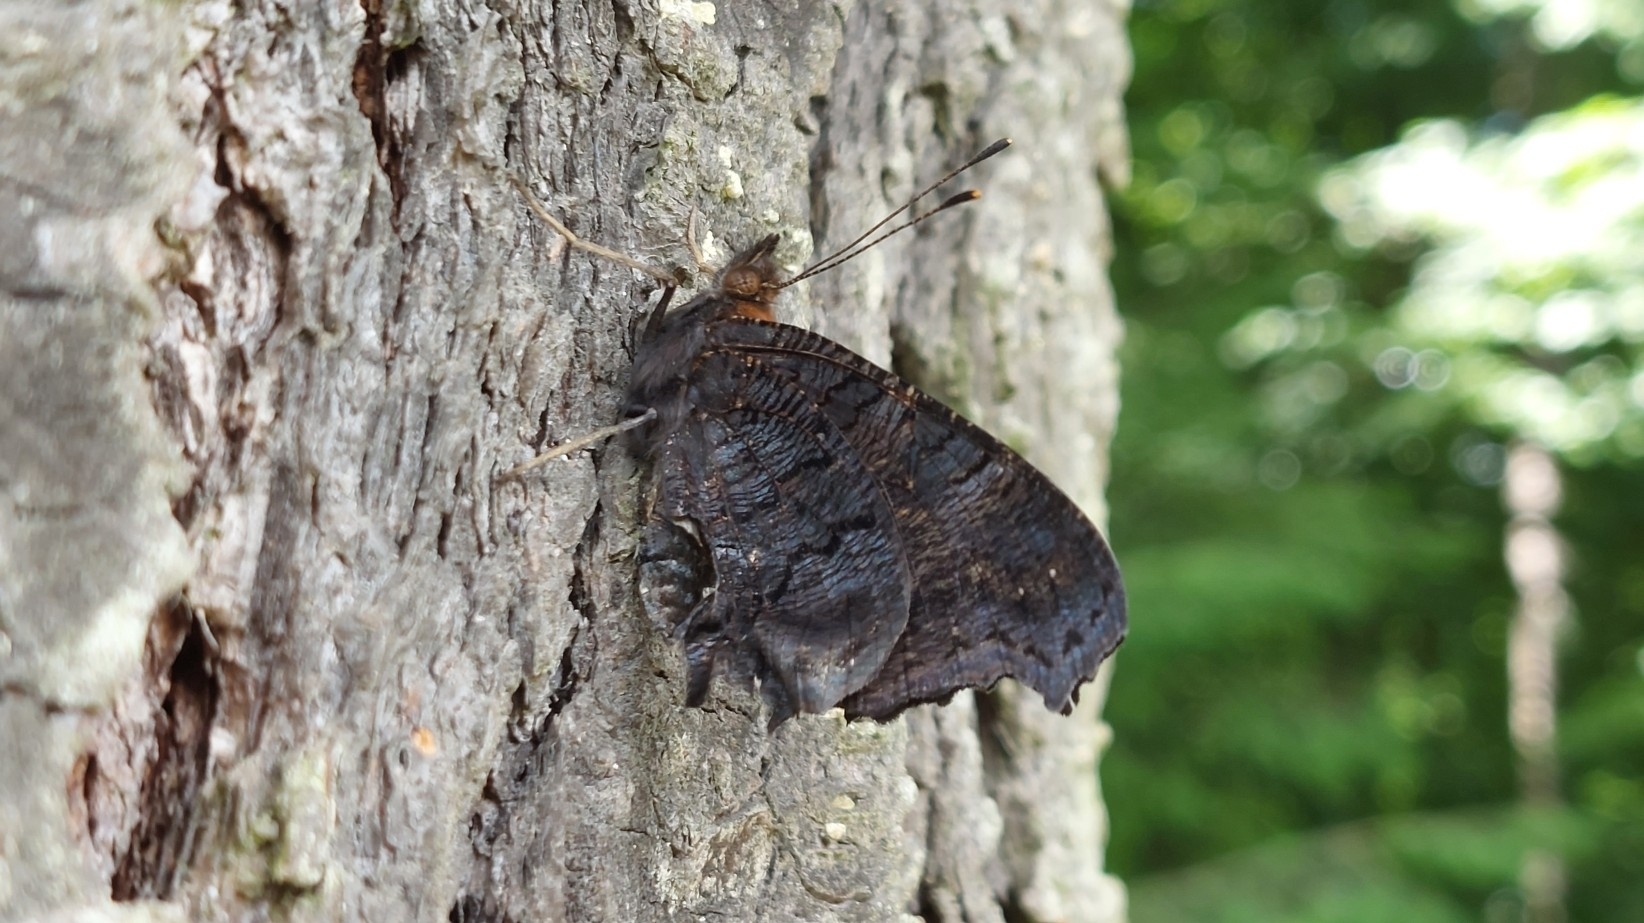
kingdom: Animalia
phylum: Arthropoda
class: Insecta
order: Lepidoptera
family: Nymphalidae
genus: Aglais
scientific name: Aglais io
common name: Peacock
